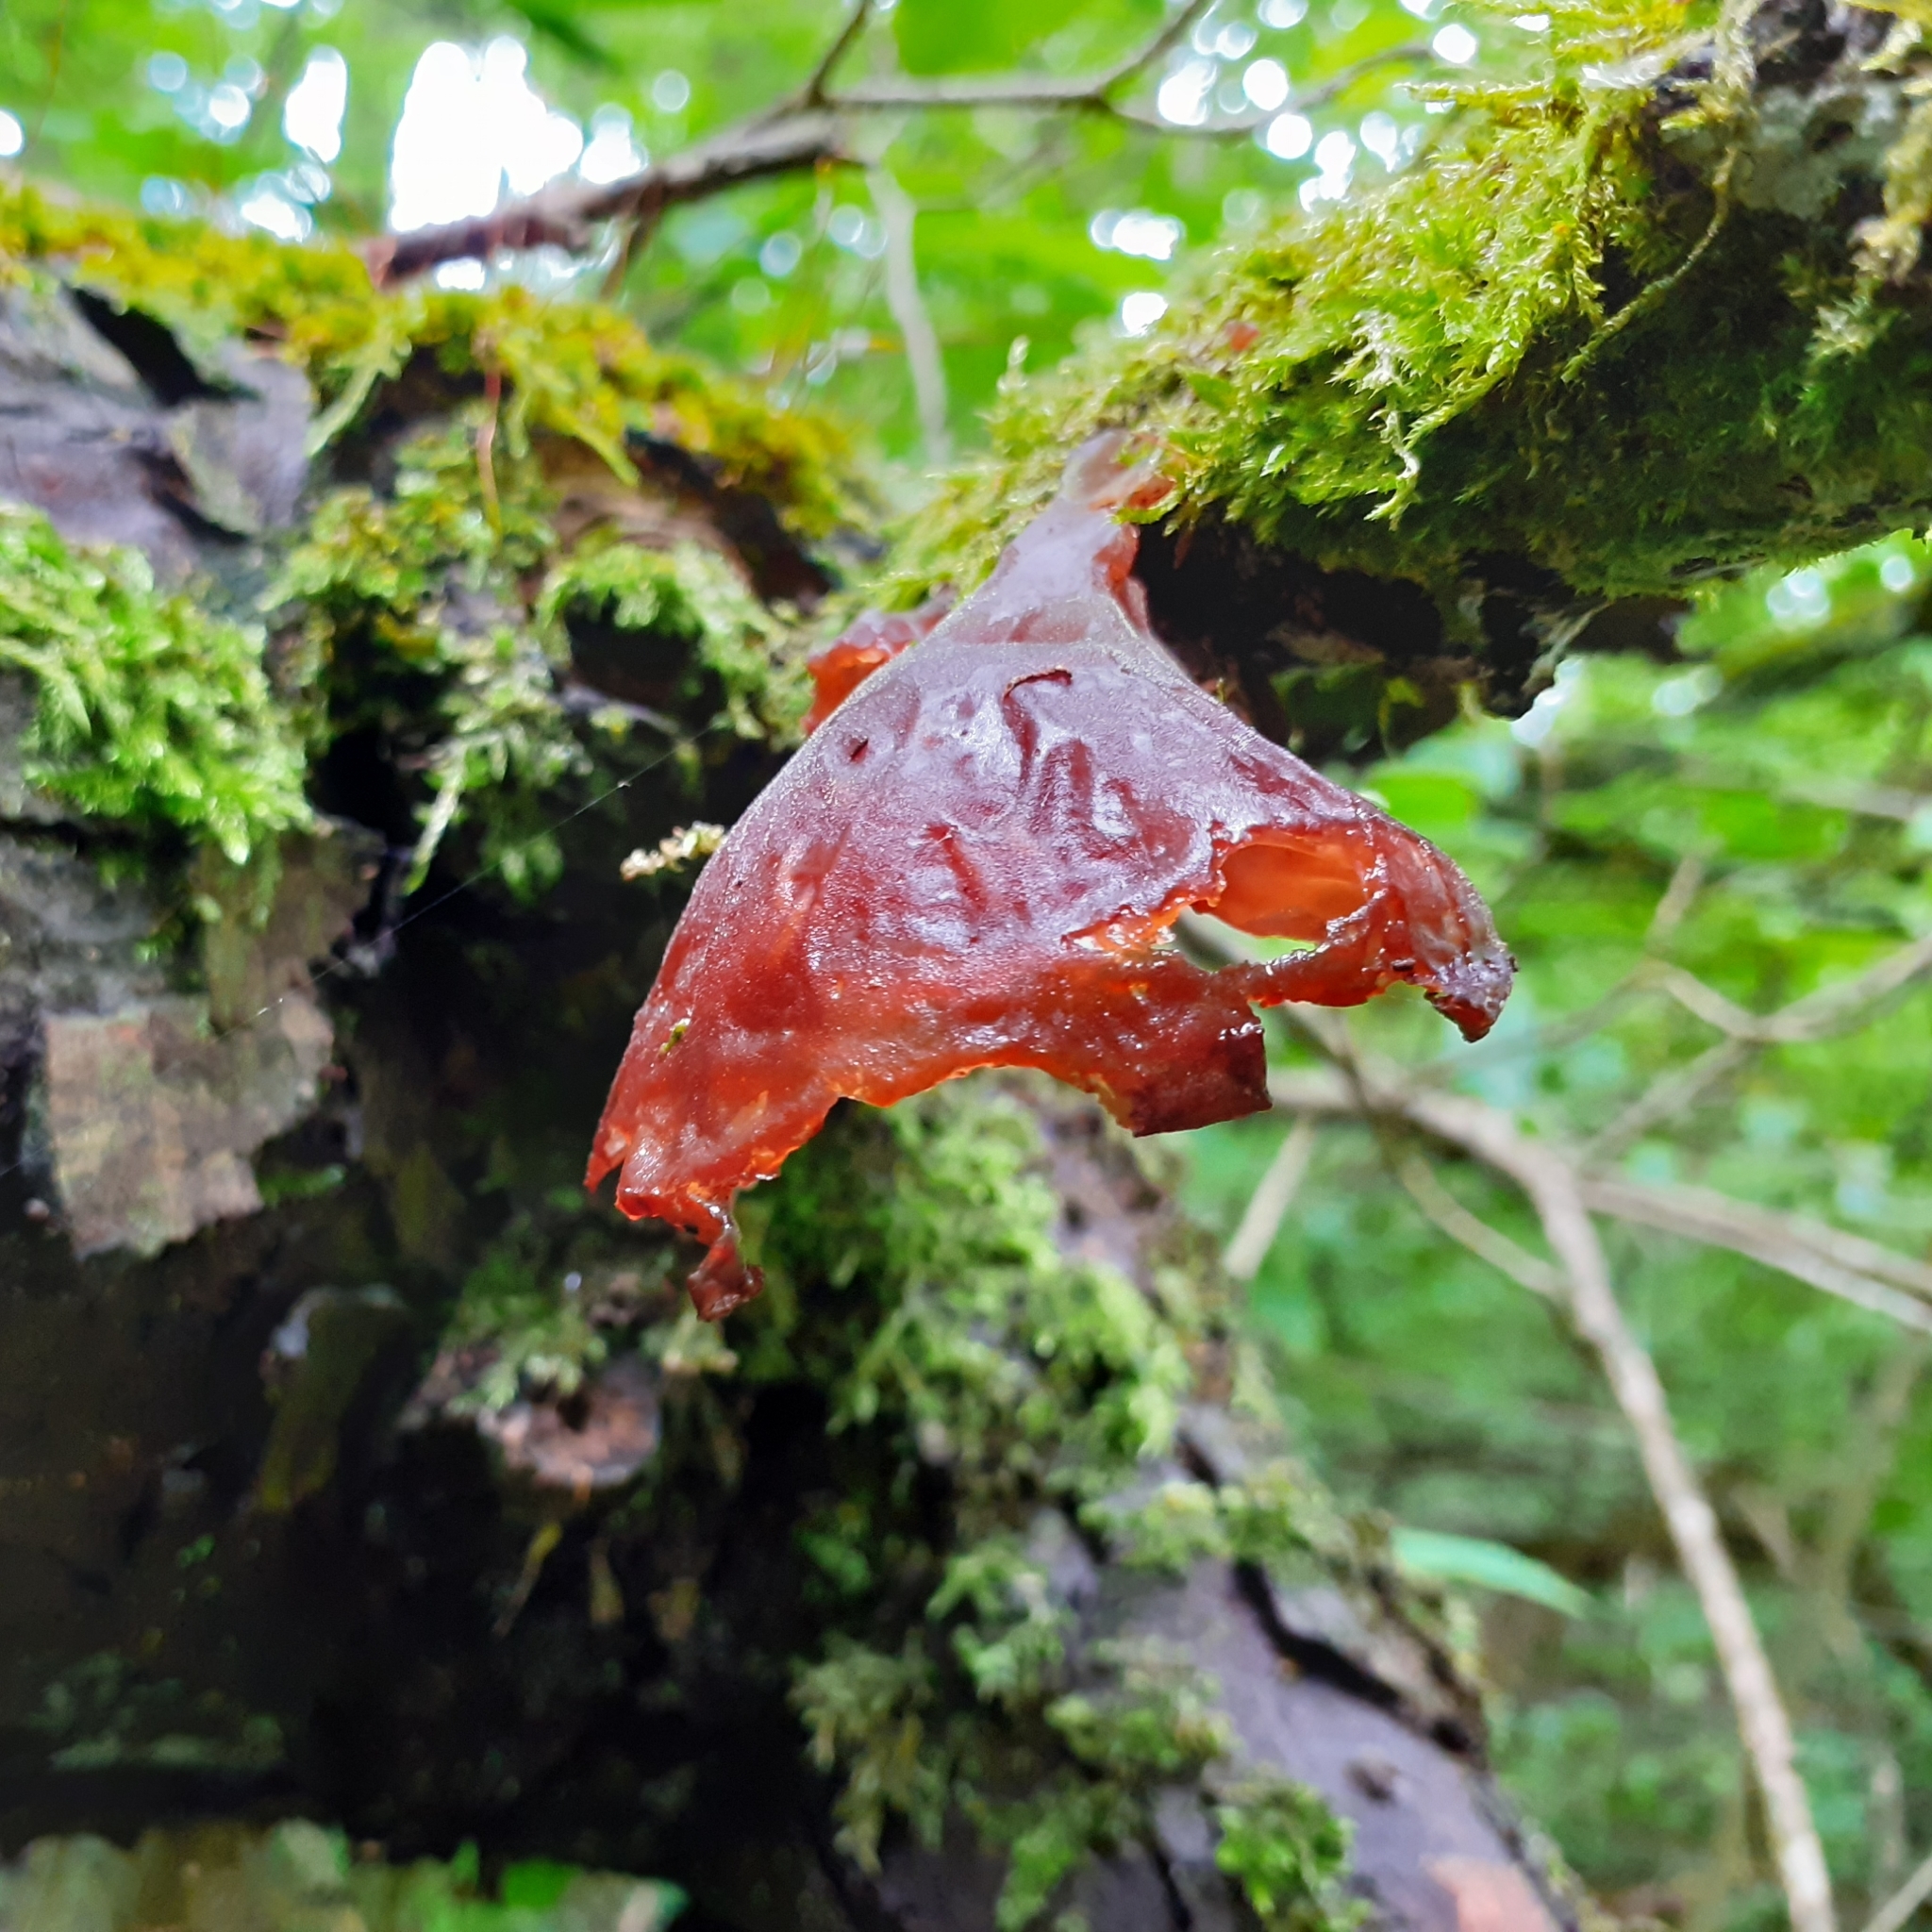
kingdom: Fungi
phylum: Basidiomycota
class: Agaricomycetes
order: Auriculariales
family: Auriculariaceae
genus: Auricularia
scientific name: Auricularia auricula-judae
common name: Jelly ear
